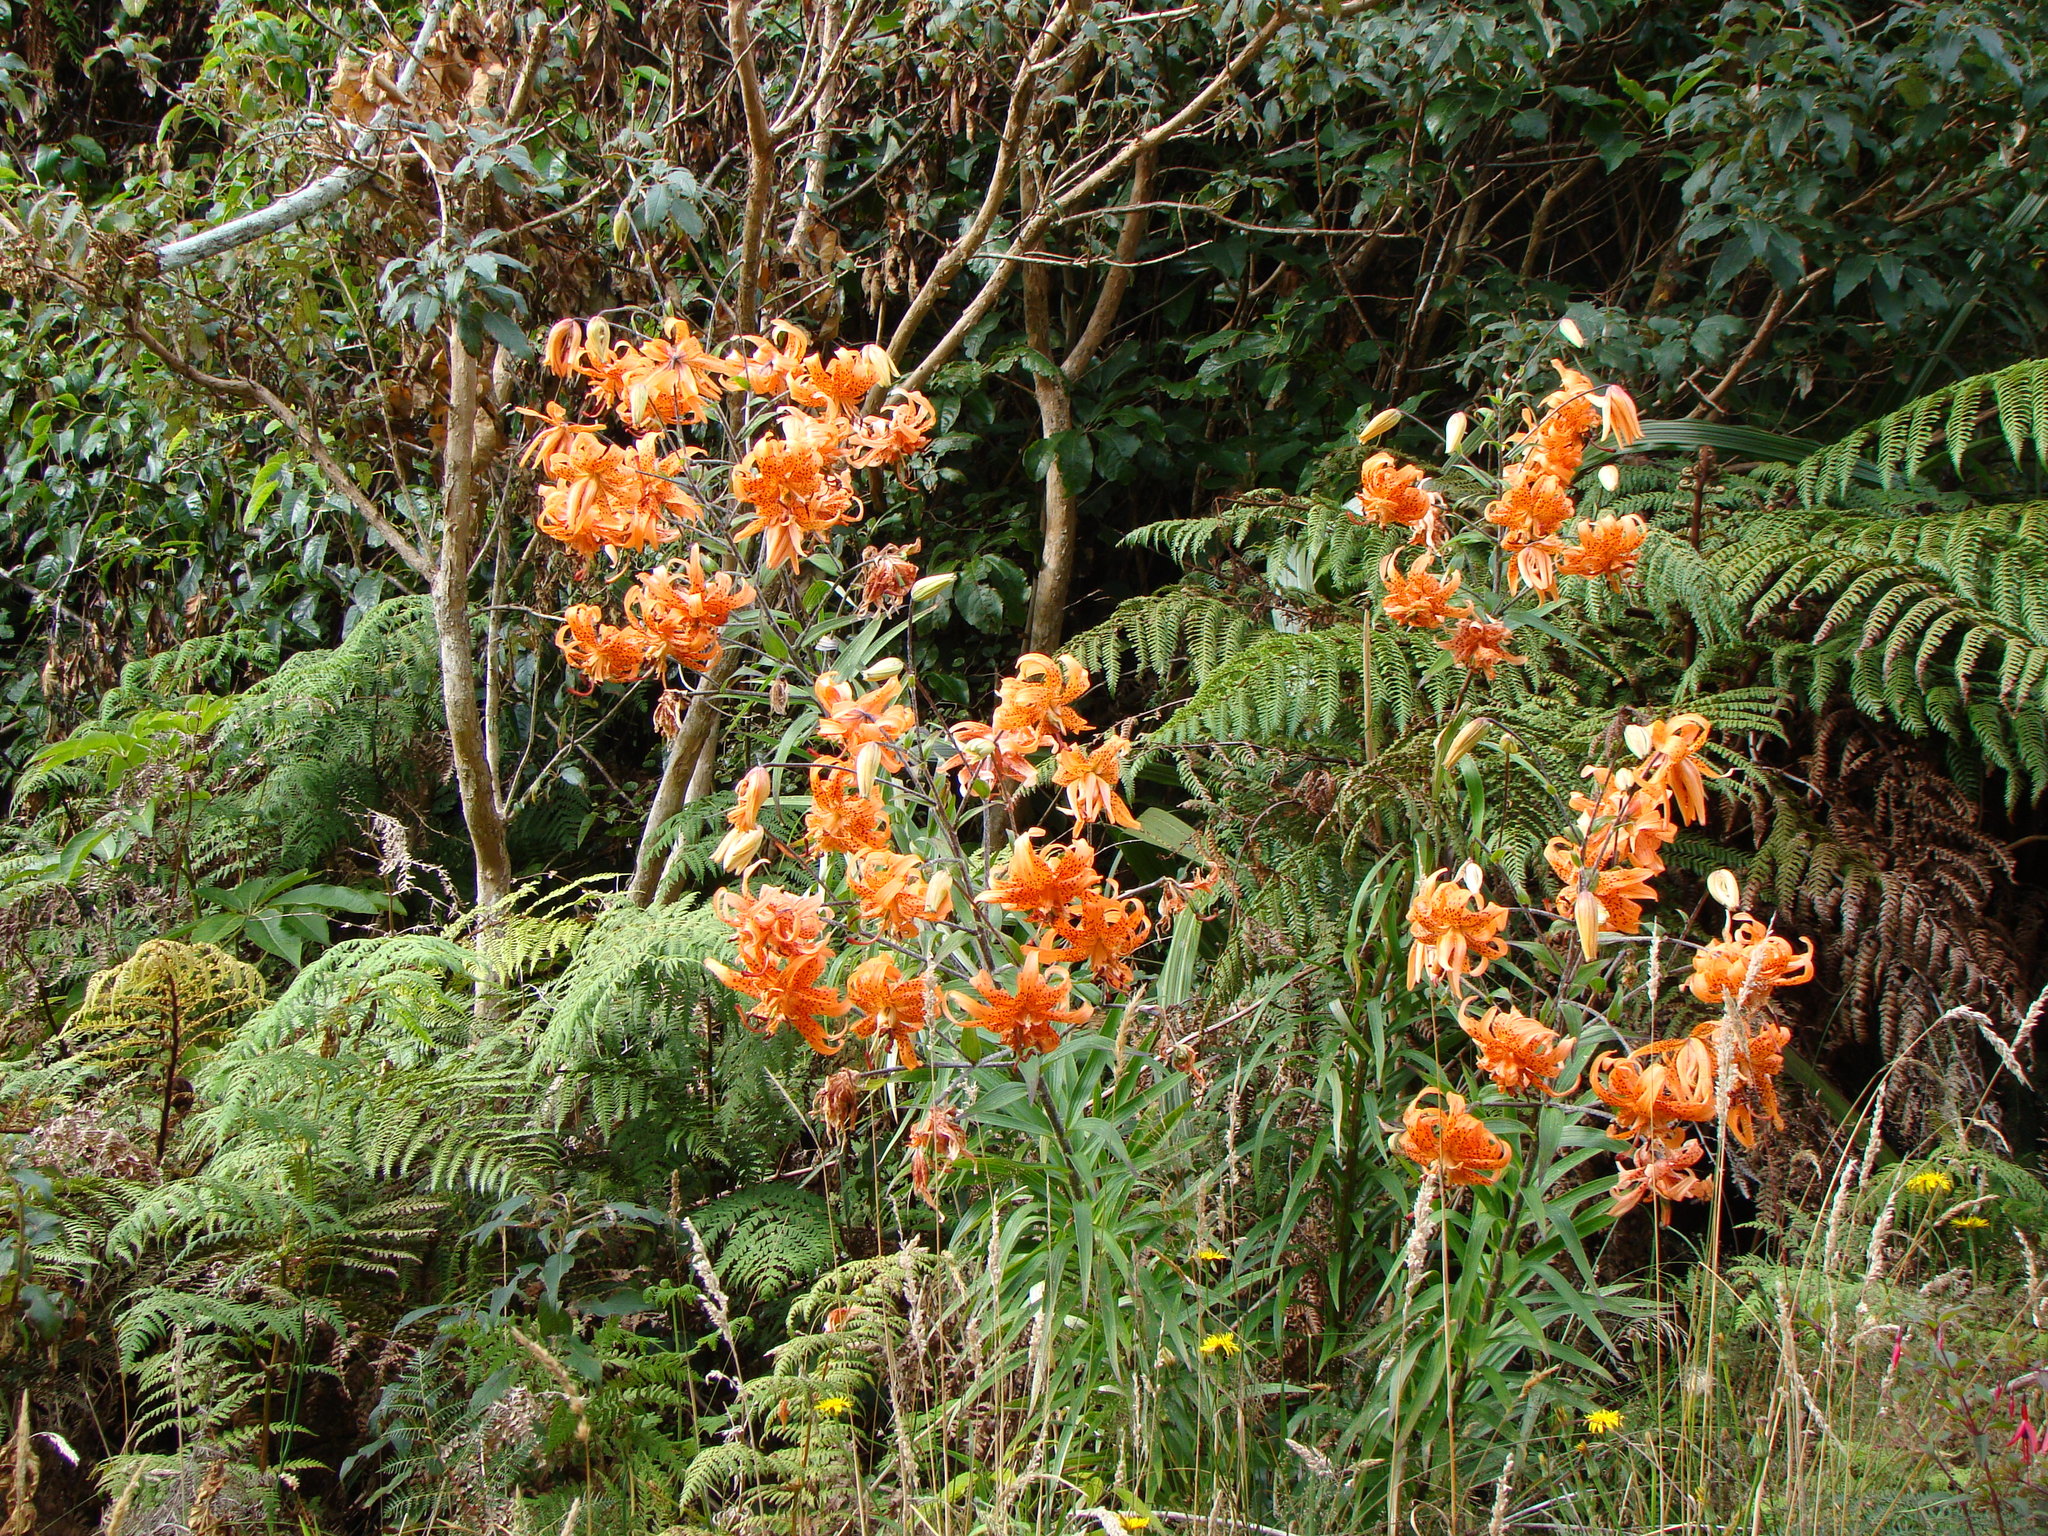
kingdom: Plantae
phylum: Tracheophyta
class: Liliopsida
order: Liliales
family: Liliaceae
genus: Lilium
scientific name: Lilium lancifolium
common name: Tiger lily
